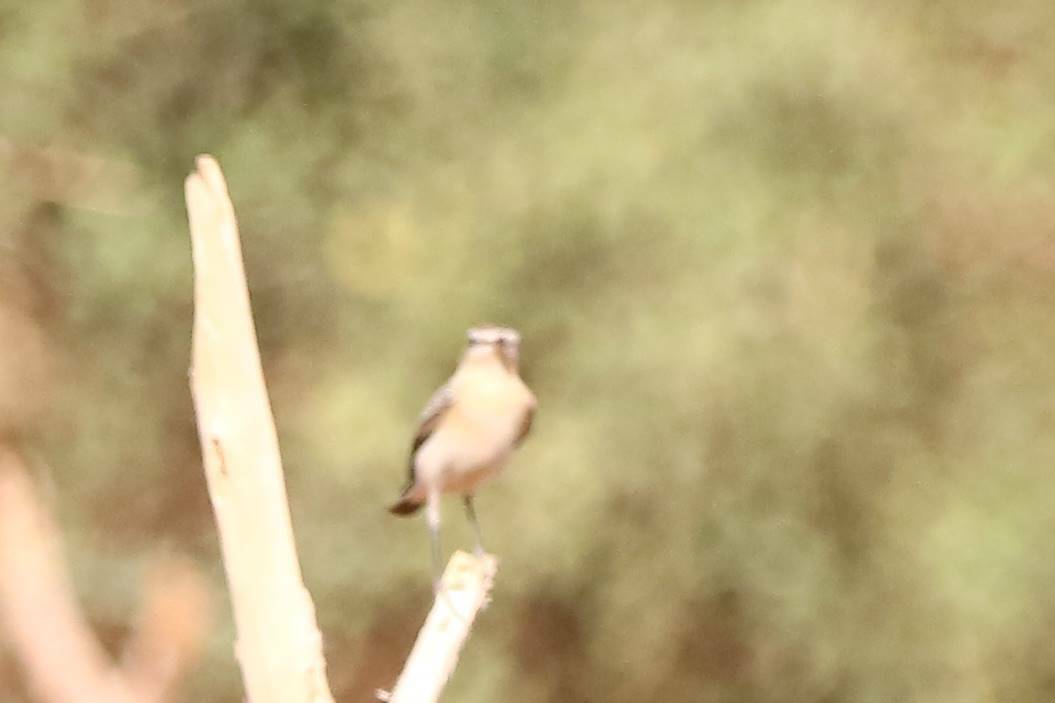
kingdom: Animalia
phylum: Chordata
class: Aves
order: Passeriformes
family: Muscicapidae
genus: Oenanthe
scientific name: Oenanthe oenanthe
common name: Northern wheatear
